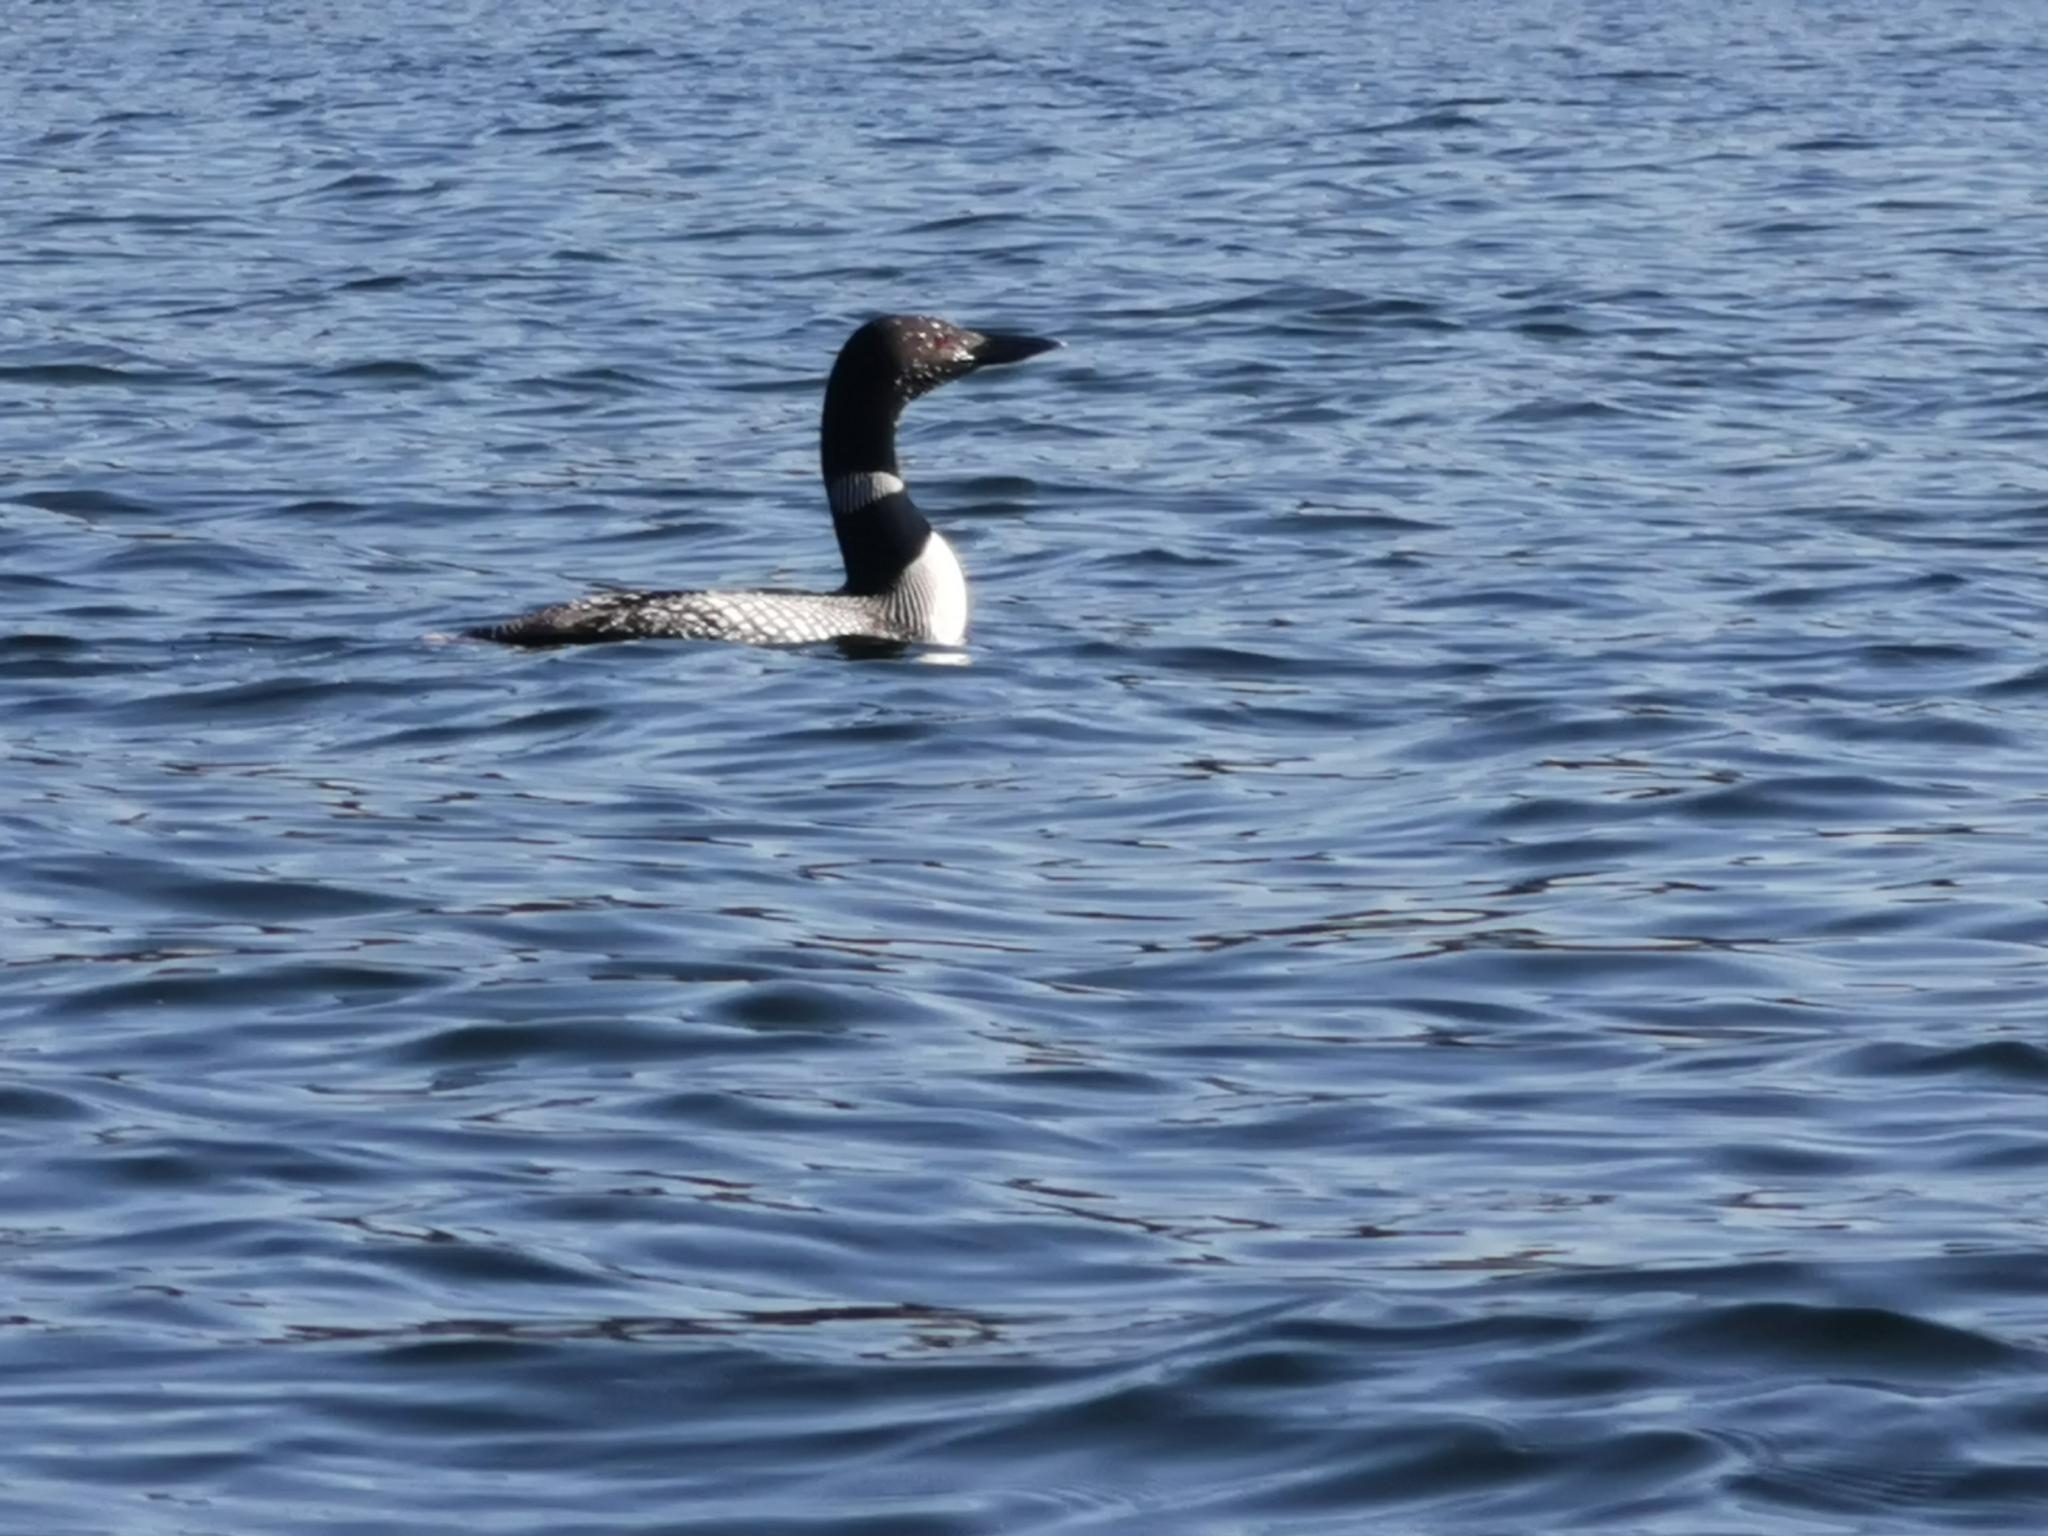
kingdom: Animalia
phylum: Chordata
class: Aves
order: Gaviiformes
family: Gaviidae
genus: Gavia
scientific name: Gavia immer
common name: Common loon
